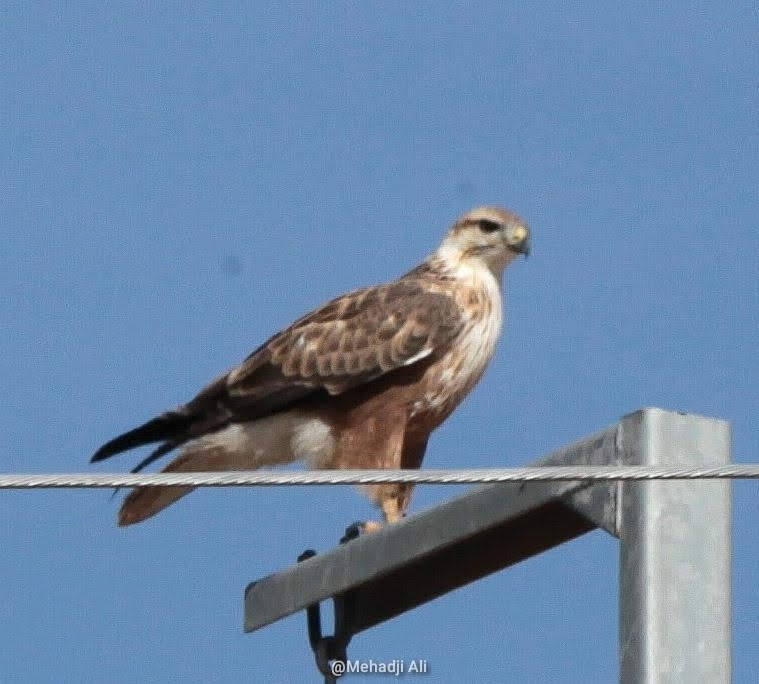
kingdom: Animalia
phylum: Chordata
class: Aves
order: Accipitriformes
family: Accipitridae
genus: Buteo
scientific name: Buteo rufinus
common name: Long-legged buzzard
